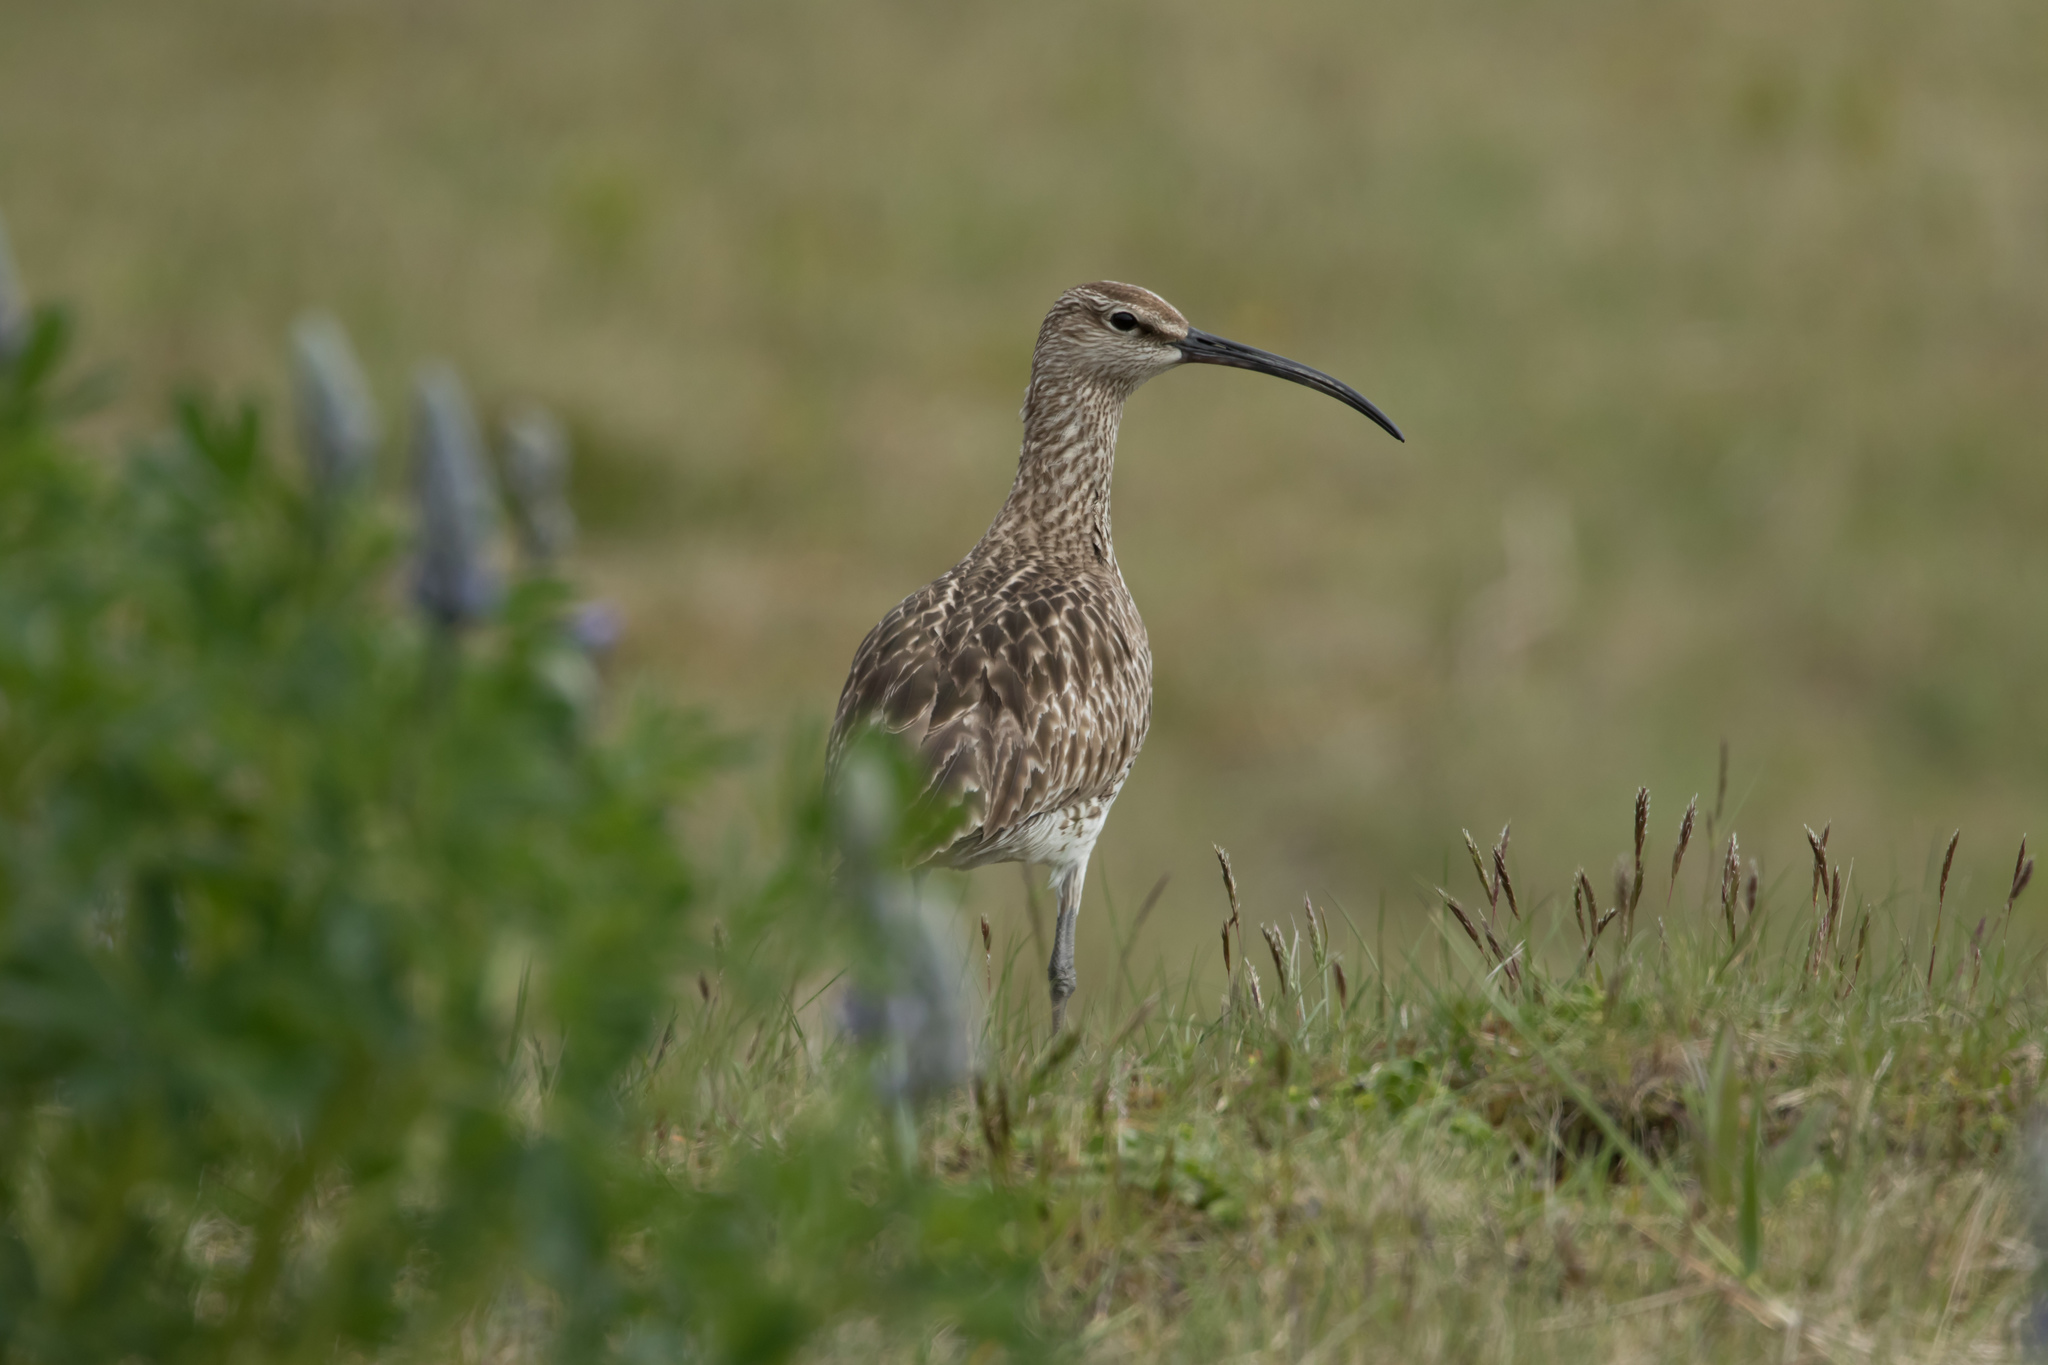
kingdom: Animalia
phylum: Chordata
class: Aves
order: Charadriiformes
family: Scolopacidae
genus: Numenius
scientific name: Numenius phaeopus
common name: Whimbrel
